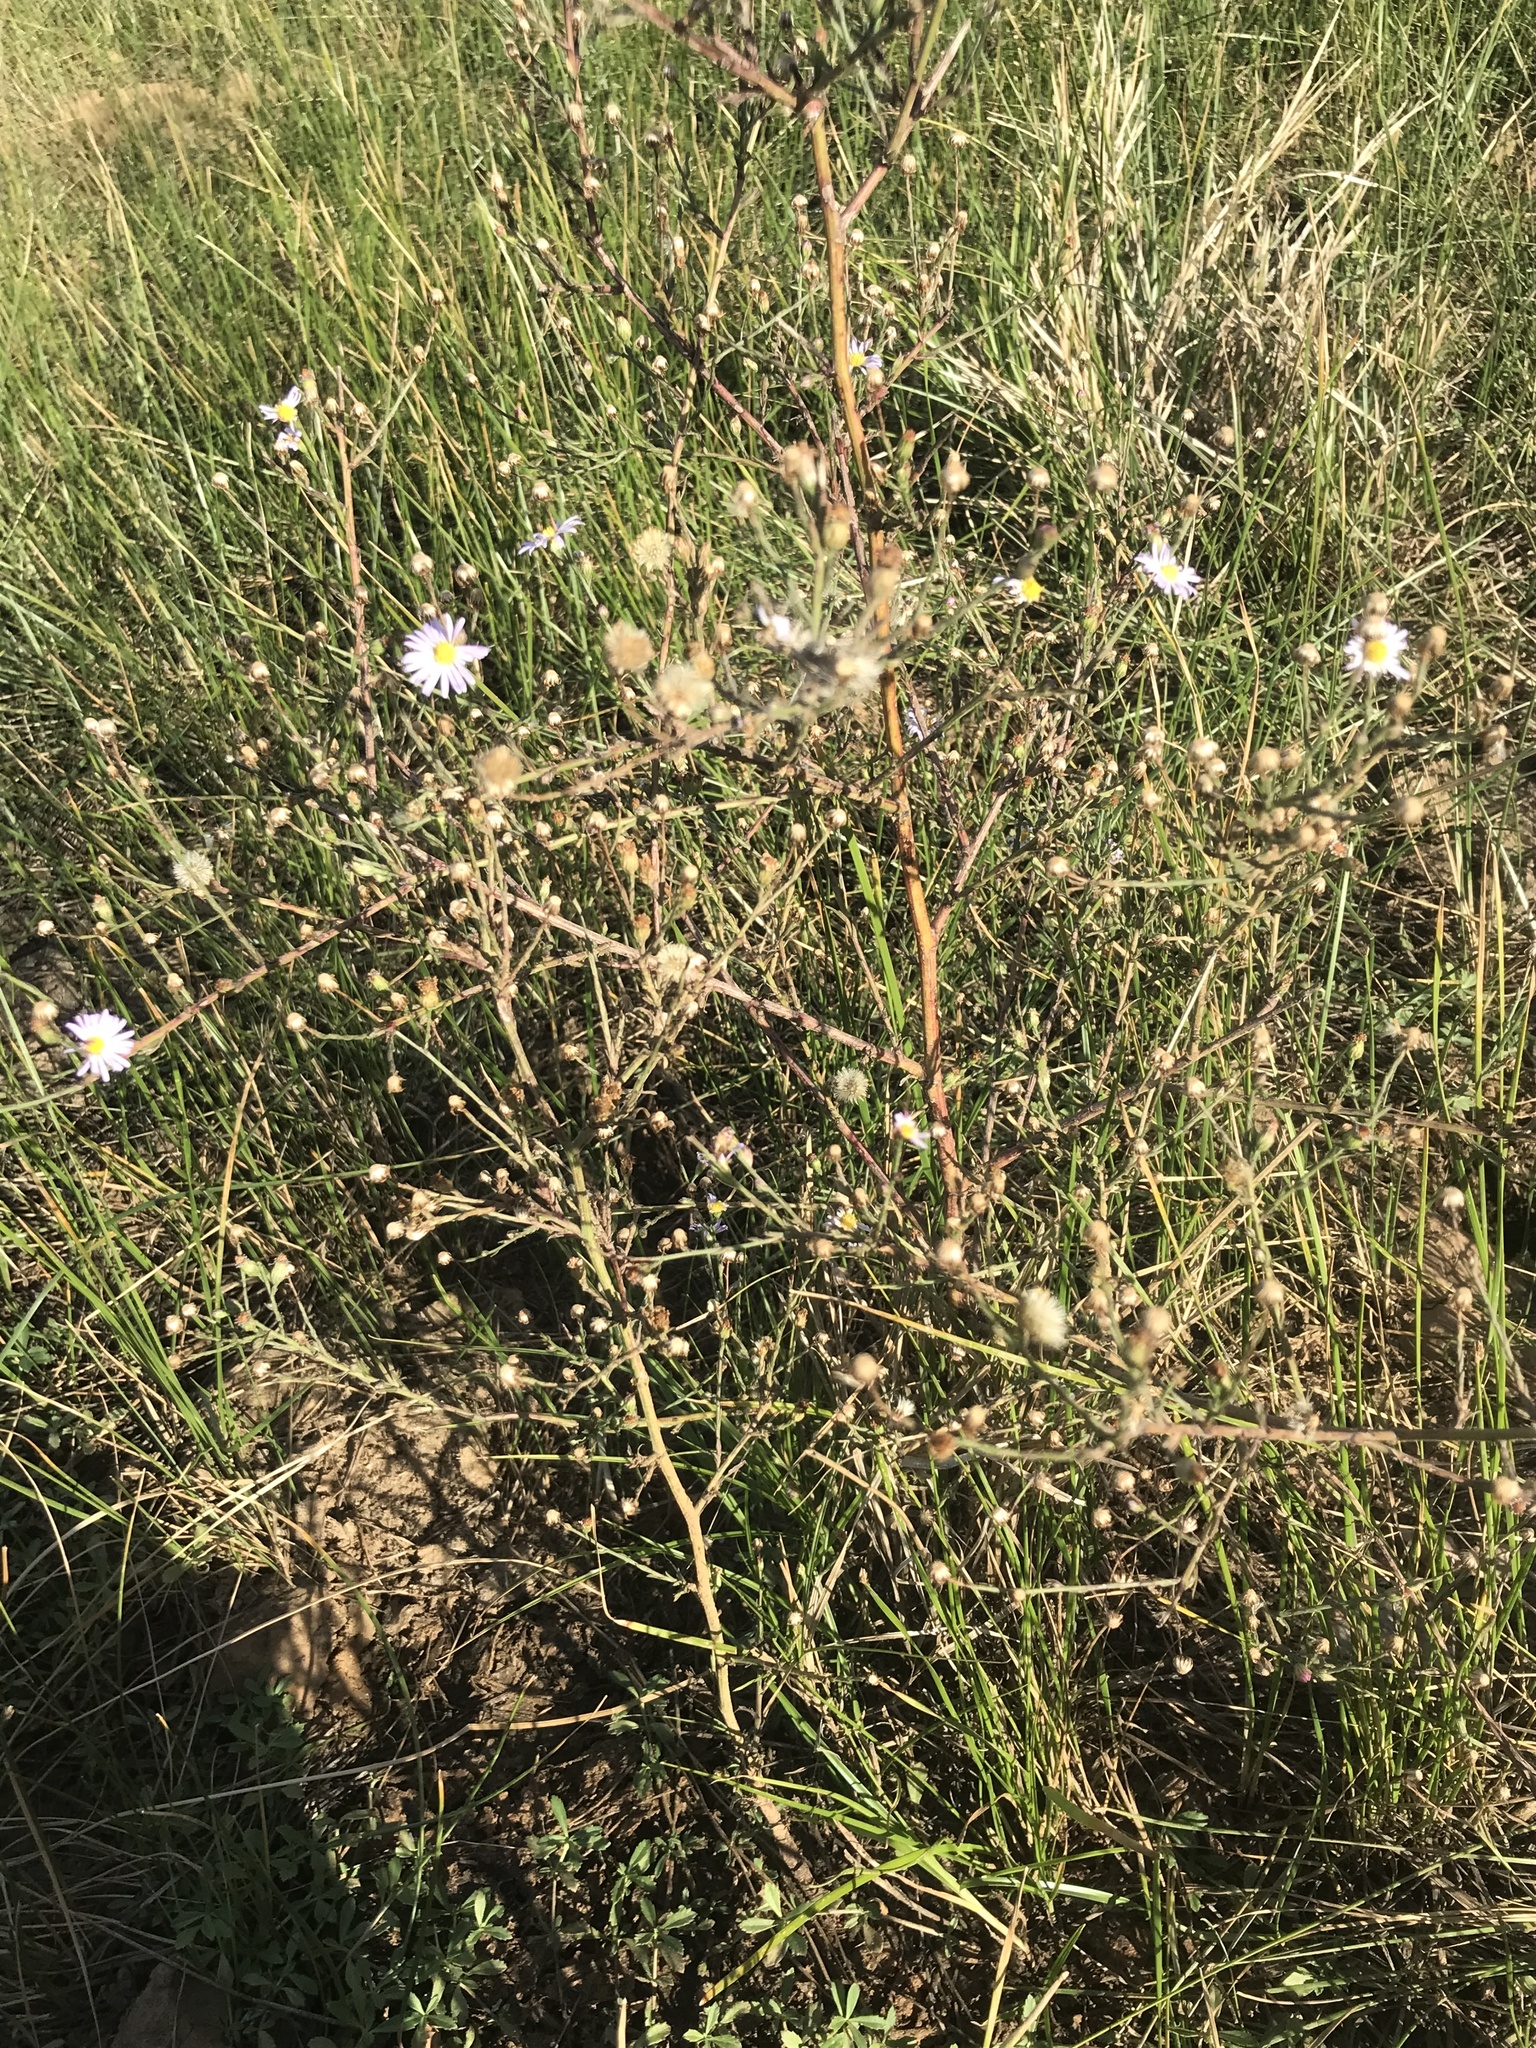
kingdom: Plantae
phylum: Tracheophyta
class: Magnoliopsida
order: Asterales
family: Asteraceae
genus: Symphyotrichum
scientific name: Symphyotrichum divaricatum
